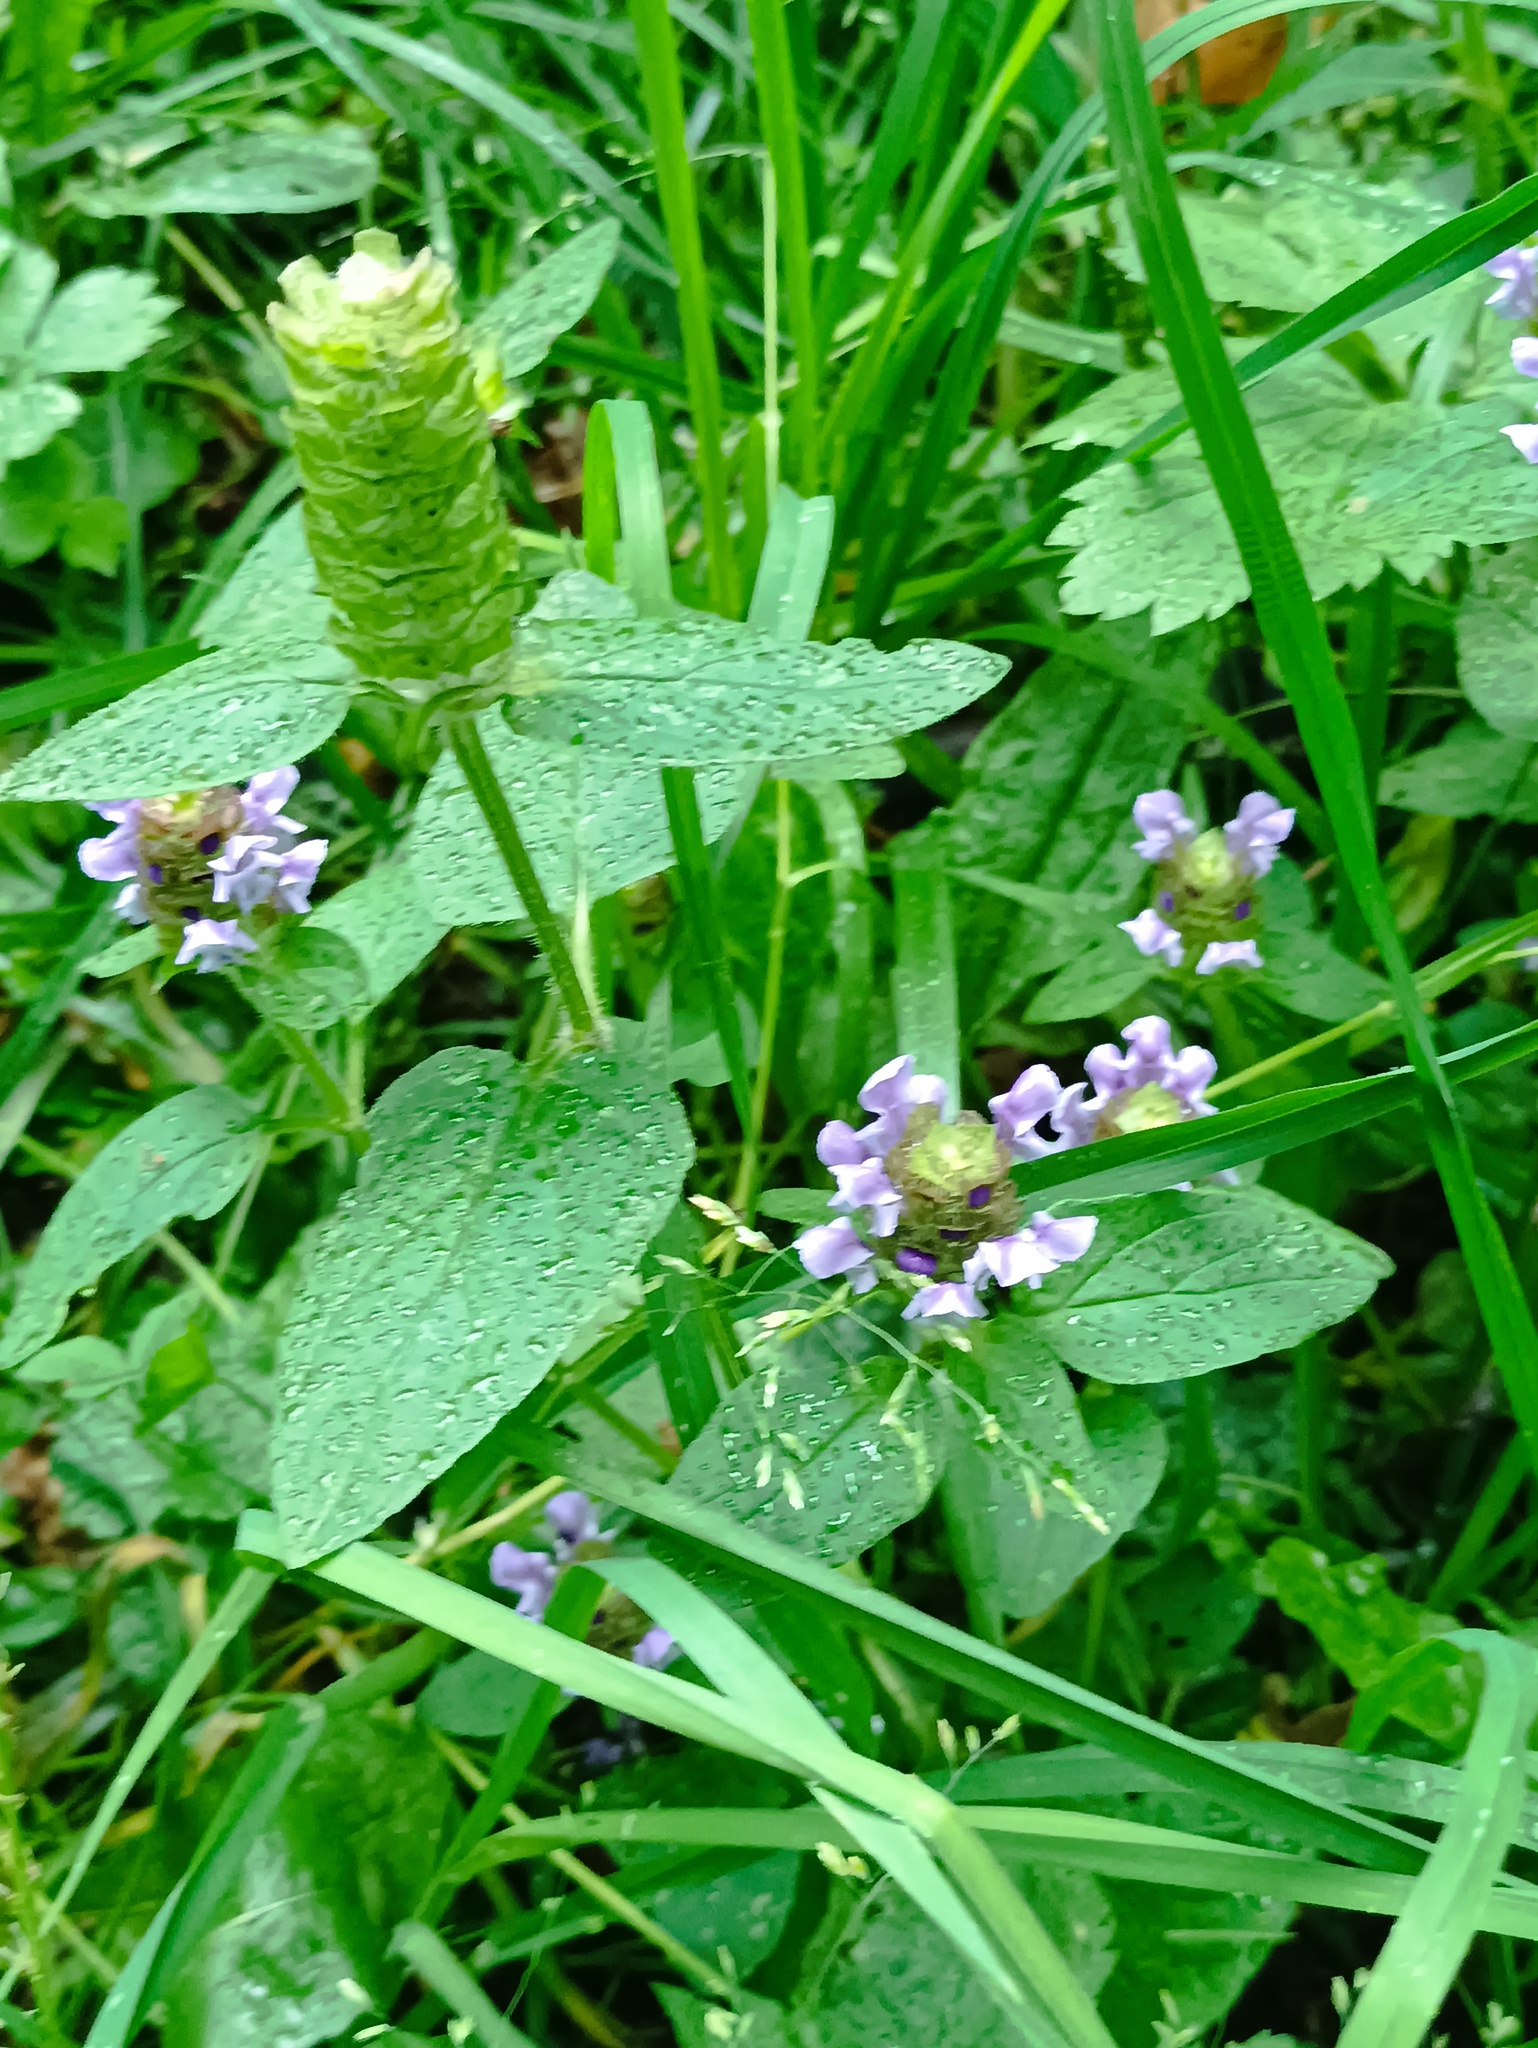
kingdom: Plantae
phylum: Tracheophyta
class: Magnoliopsida
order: Lamiales
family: Lamiaceae
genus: Prunella
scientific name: Prunella vulgaris
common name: Heal-all
